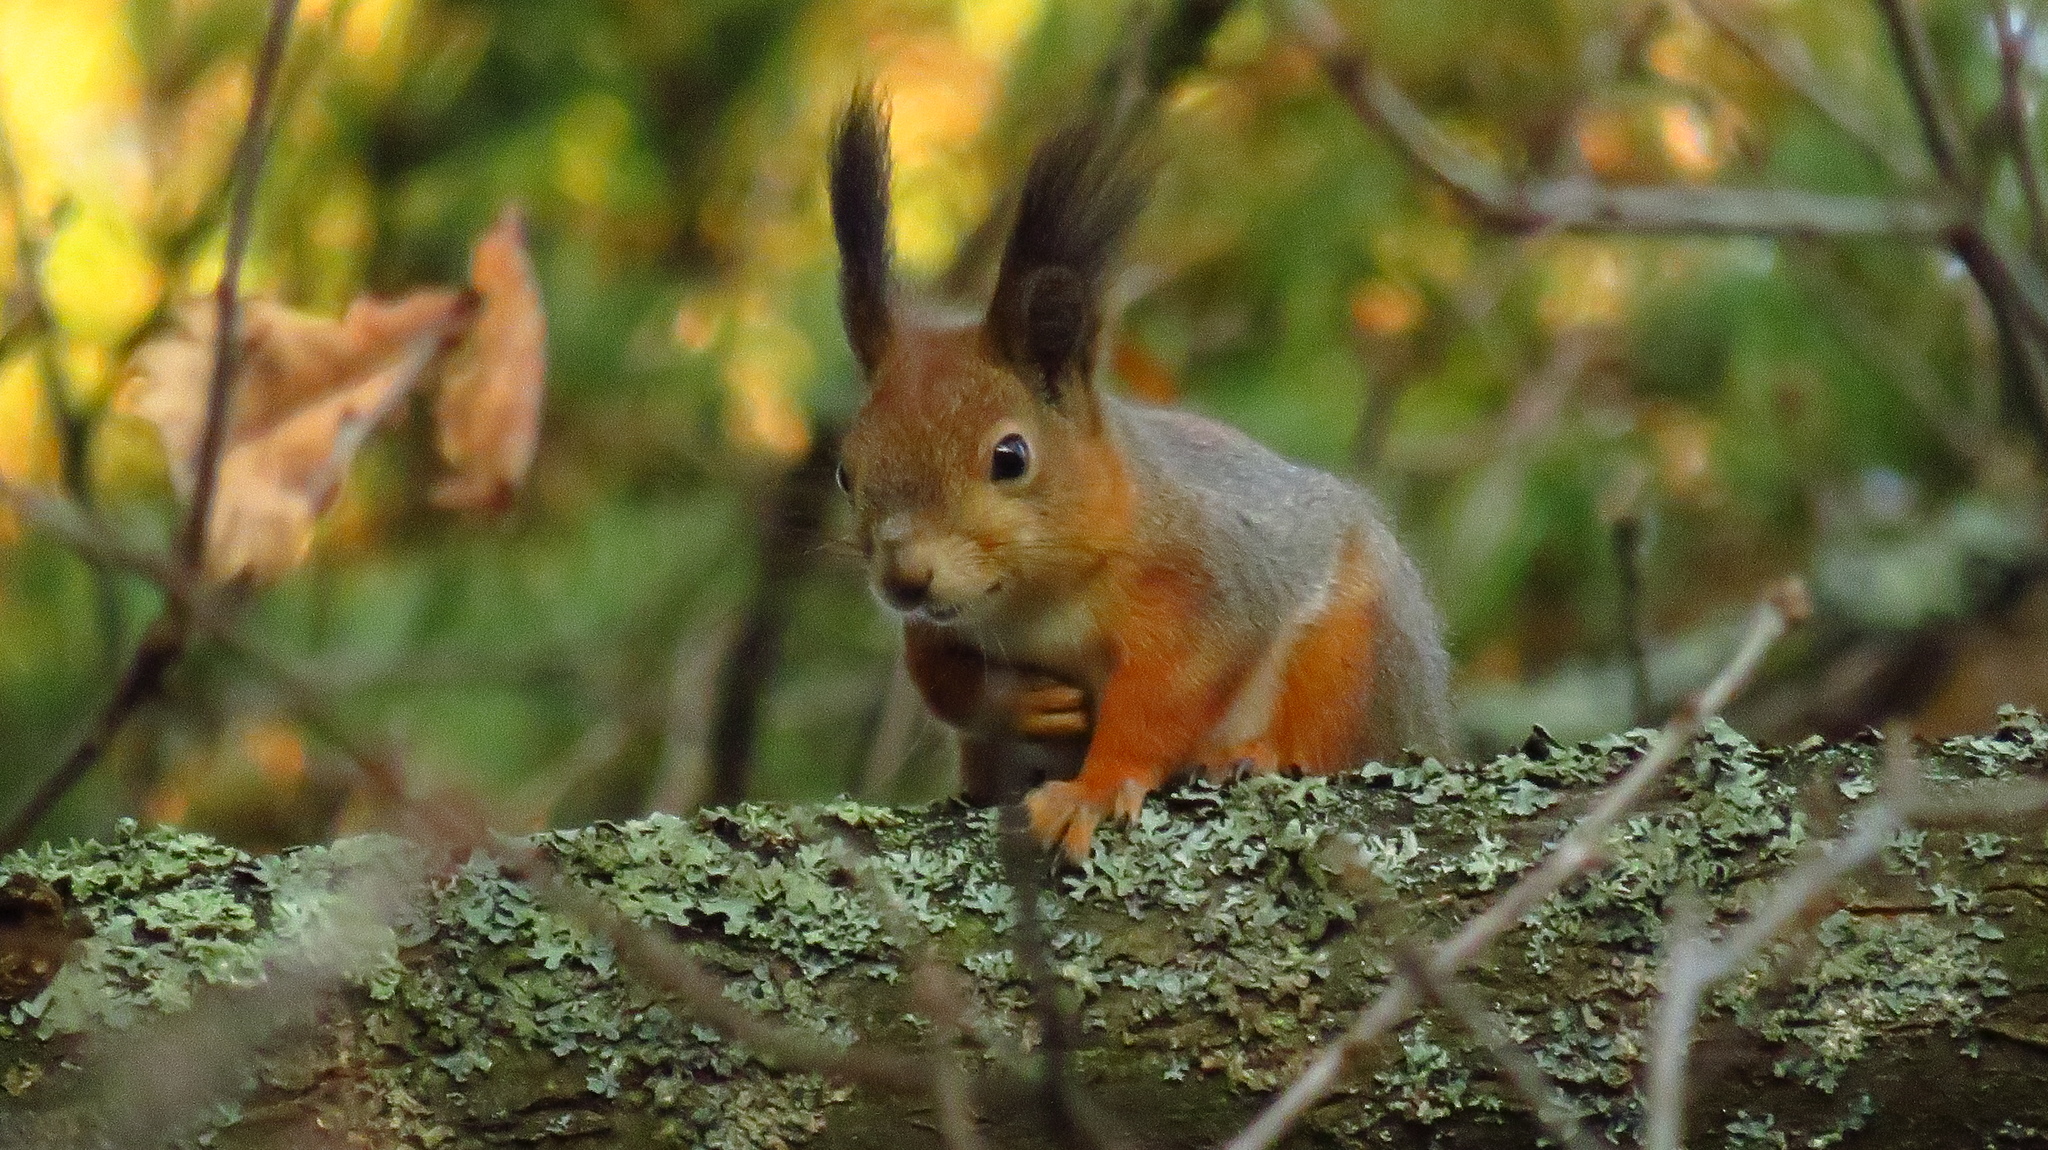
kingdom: Animalia
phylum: Chordata
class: Mammalia
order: Rodentia
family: Sciuridae
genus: Sciurus
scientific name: Sciurus vulgaris
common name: Eurasian red squirrel
